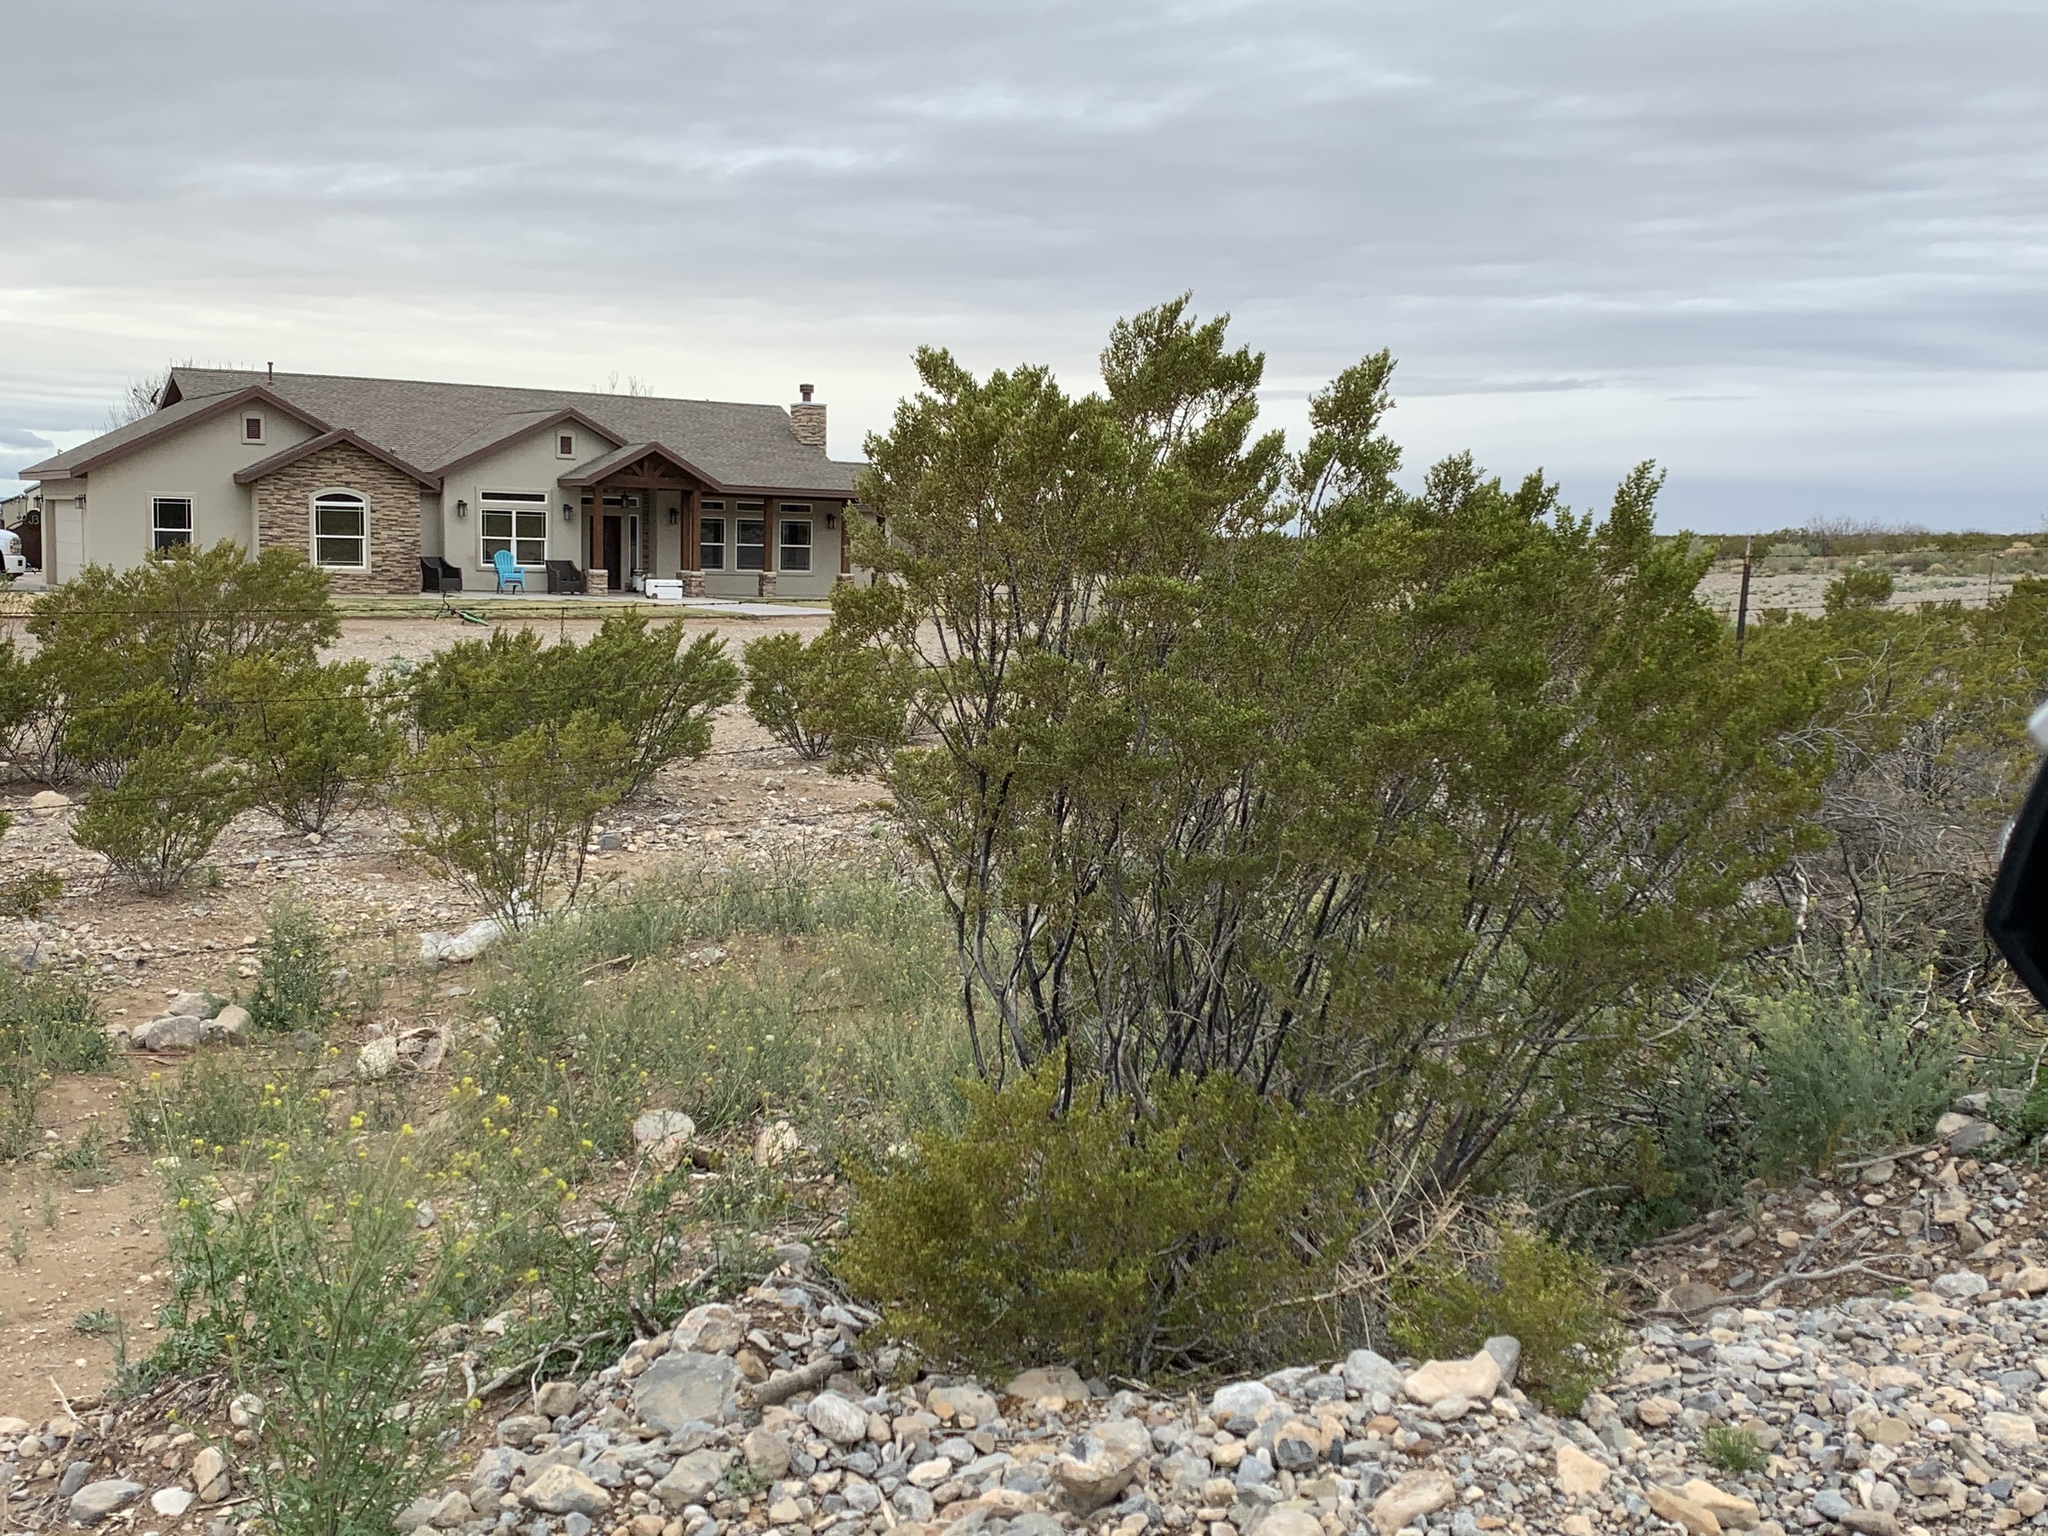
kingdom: Plantae
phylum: Tracheophyta
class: Magnoliopsida
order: Zygophyllales
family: Zygophyllaceae
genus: Larrea
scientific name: Larrea tridentata
